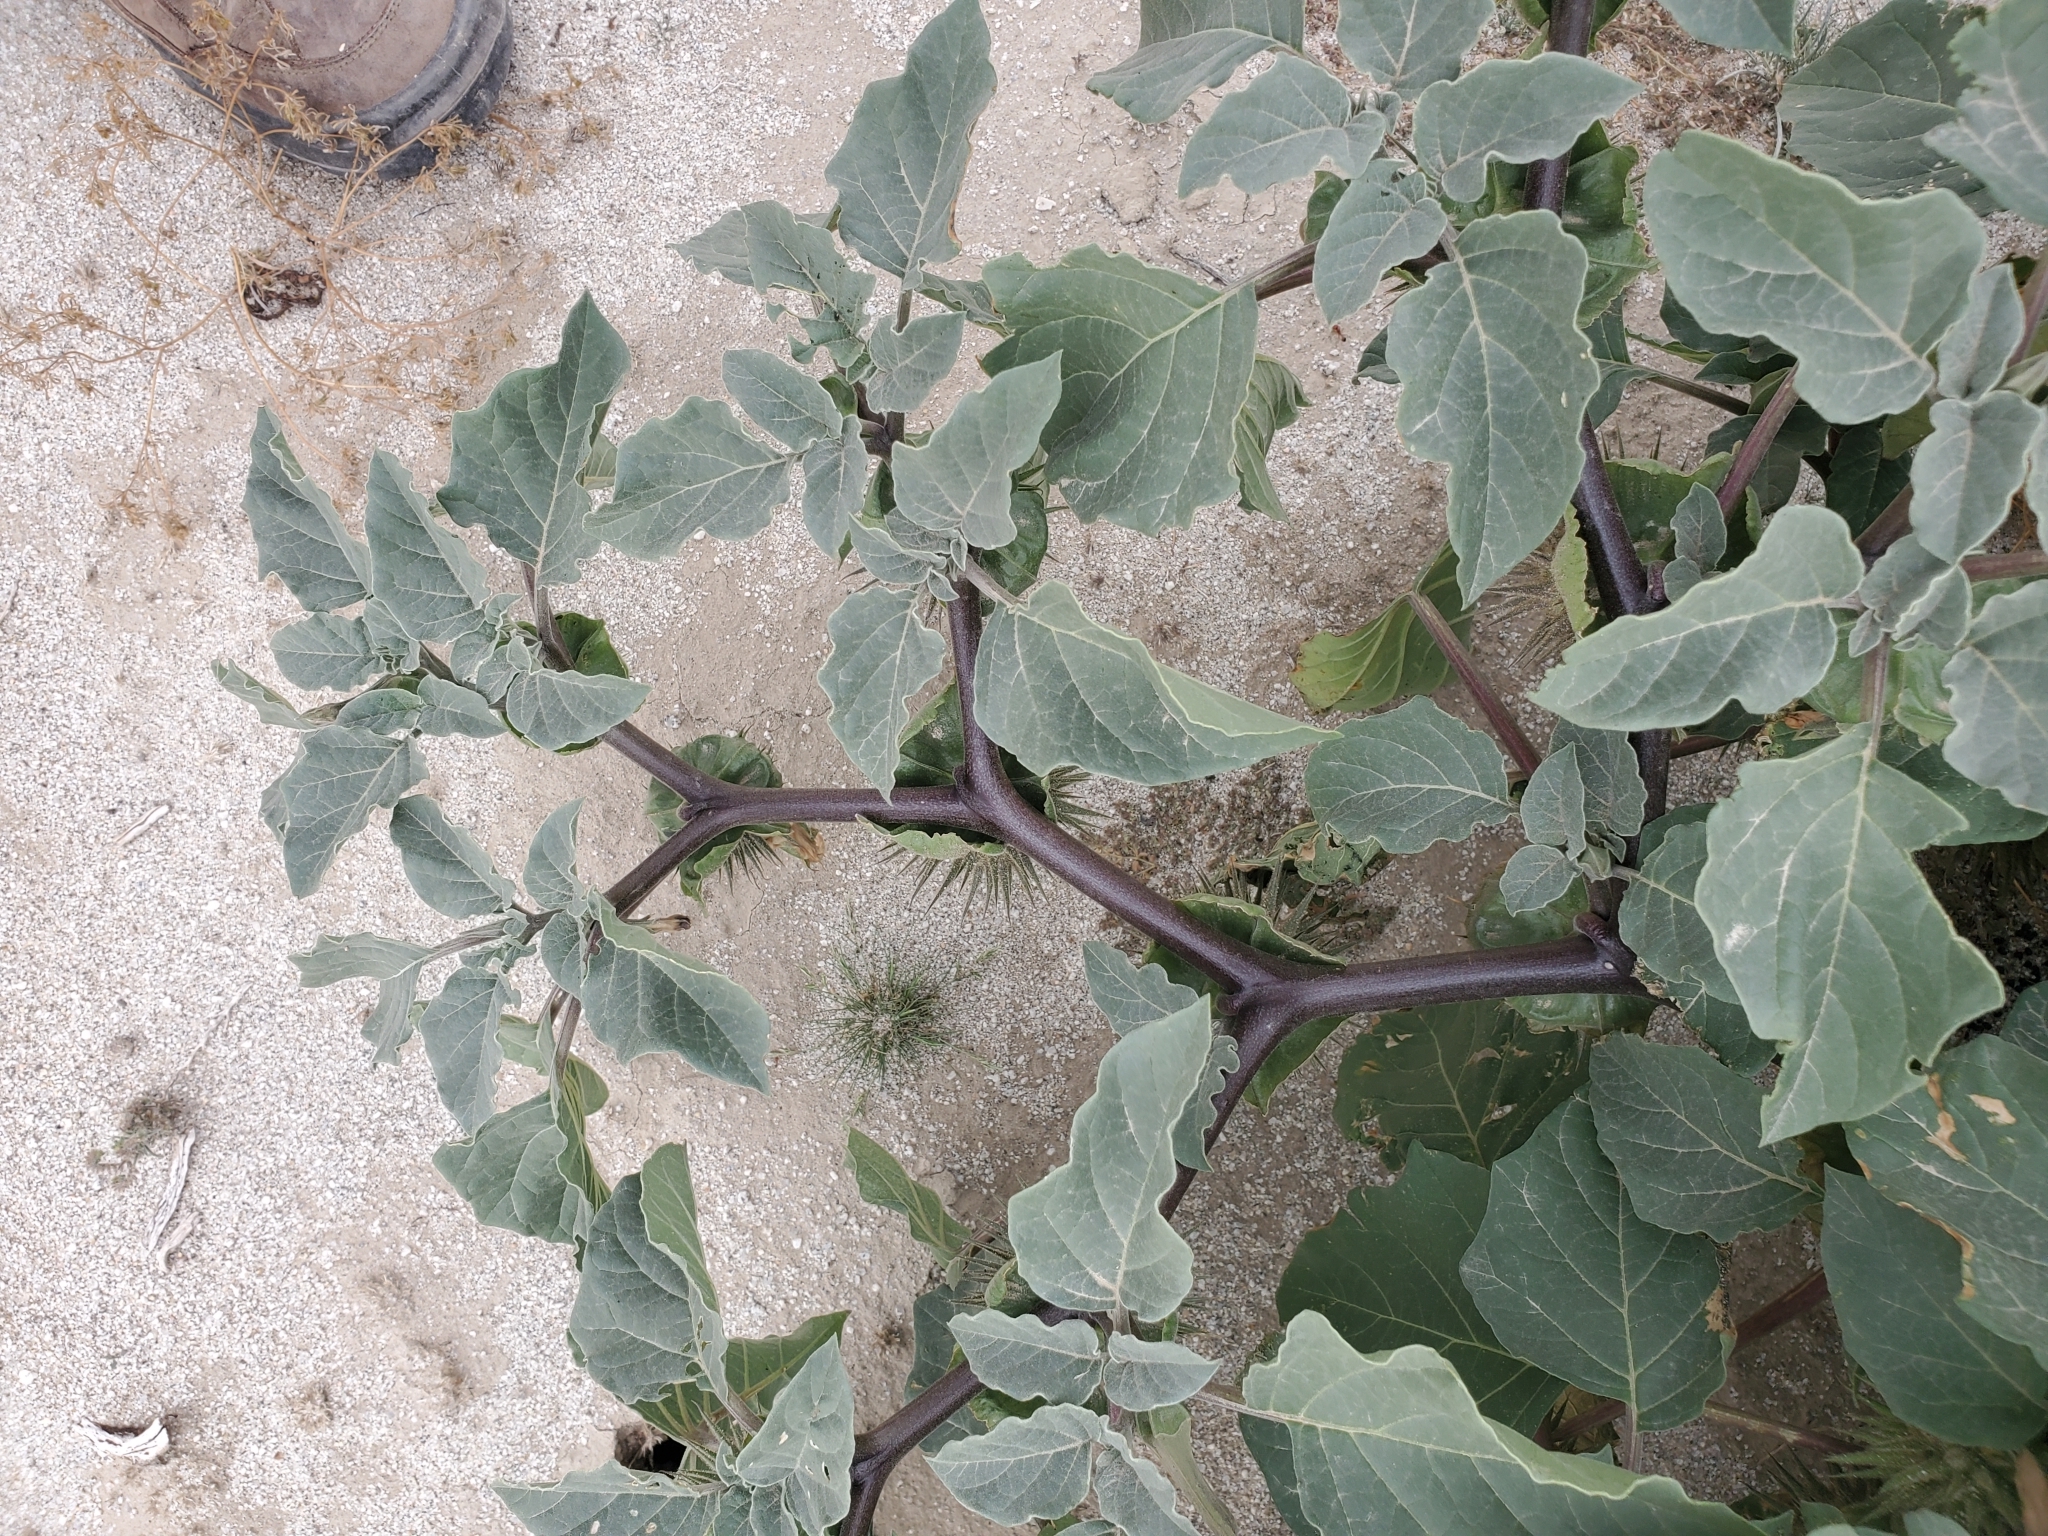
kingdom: Plantae
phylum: Tracheophyta
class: Magnoliopsida
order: Solanales
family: Solanaceae
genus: Datura
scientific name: Datura discolor
